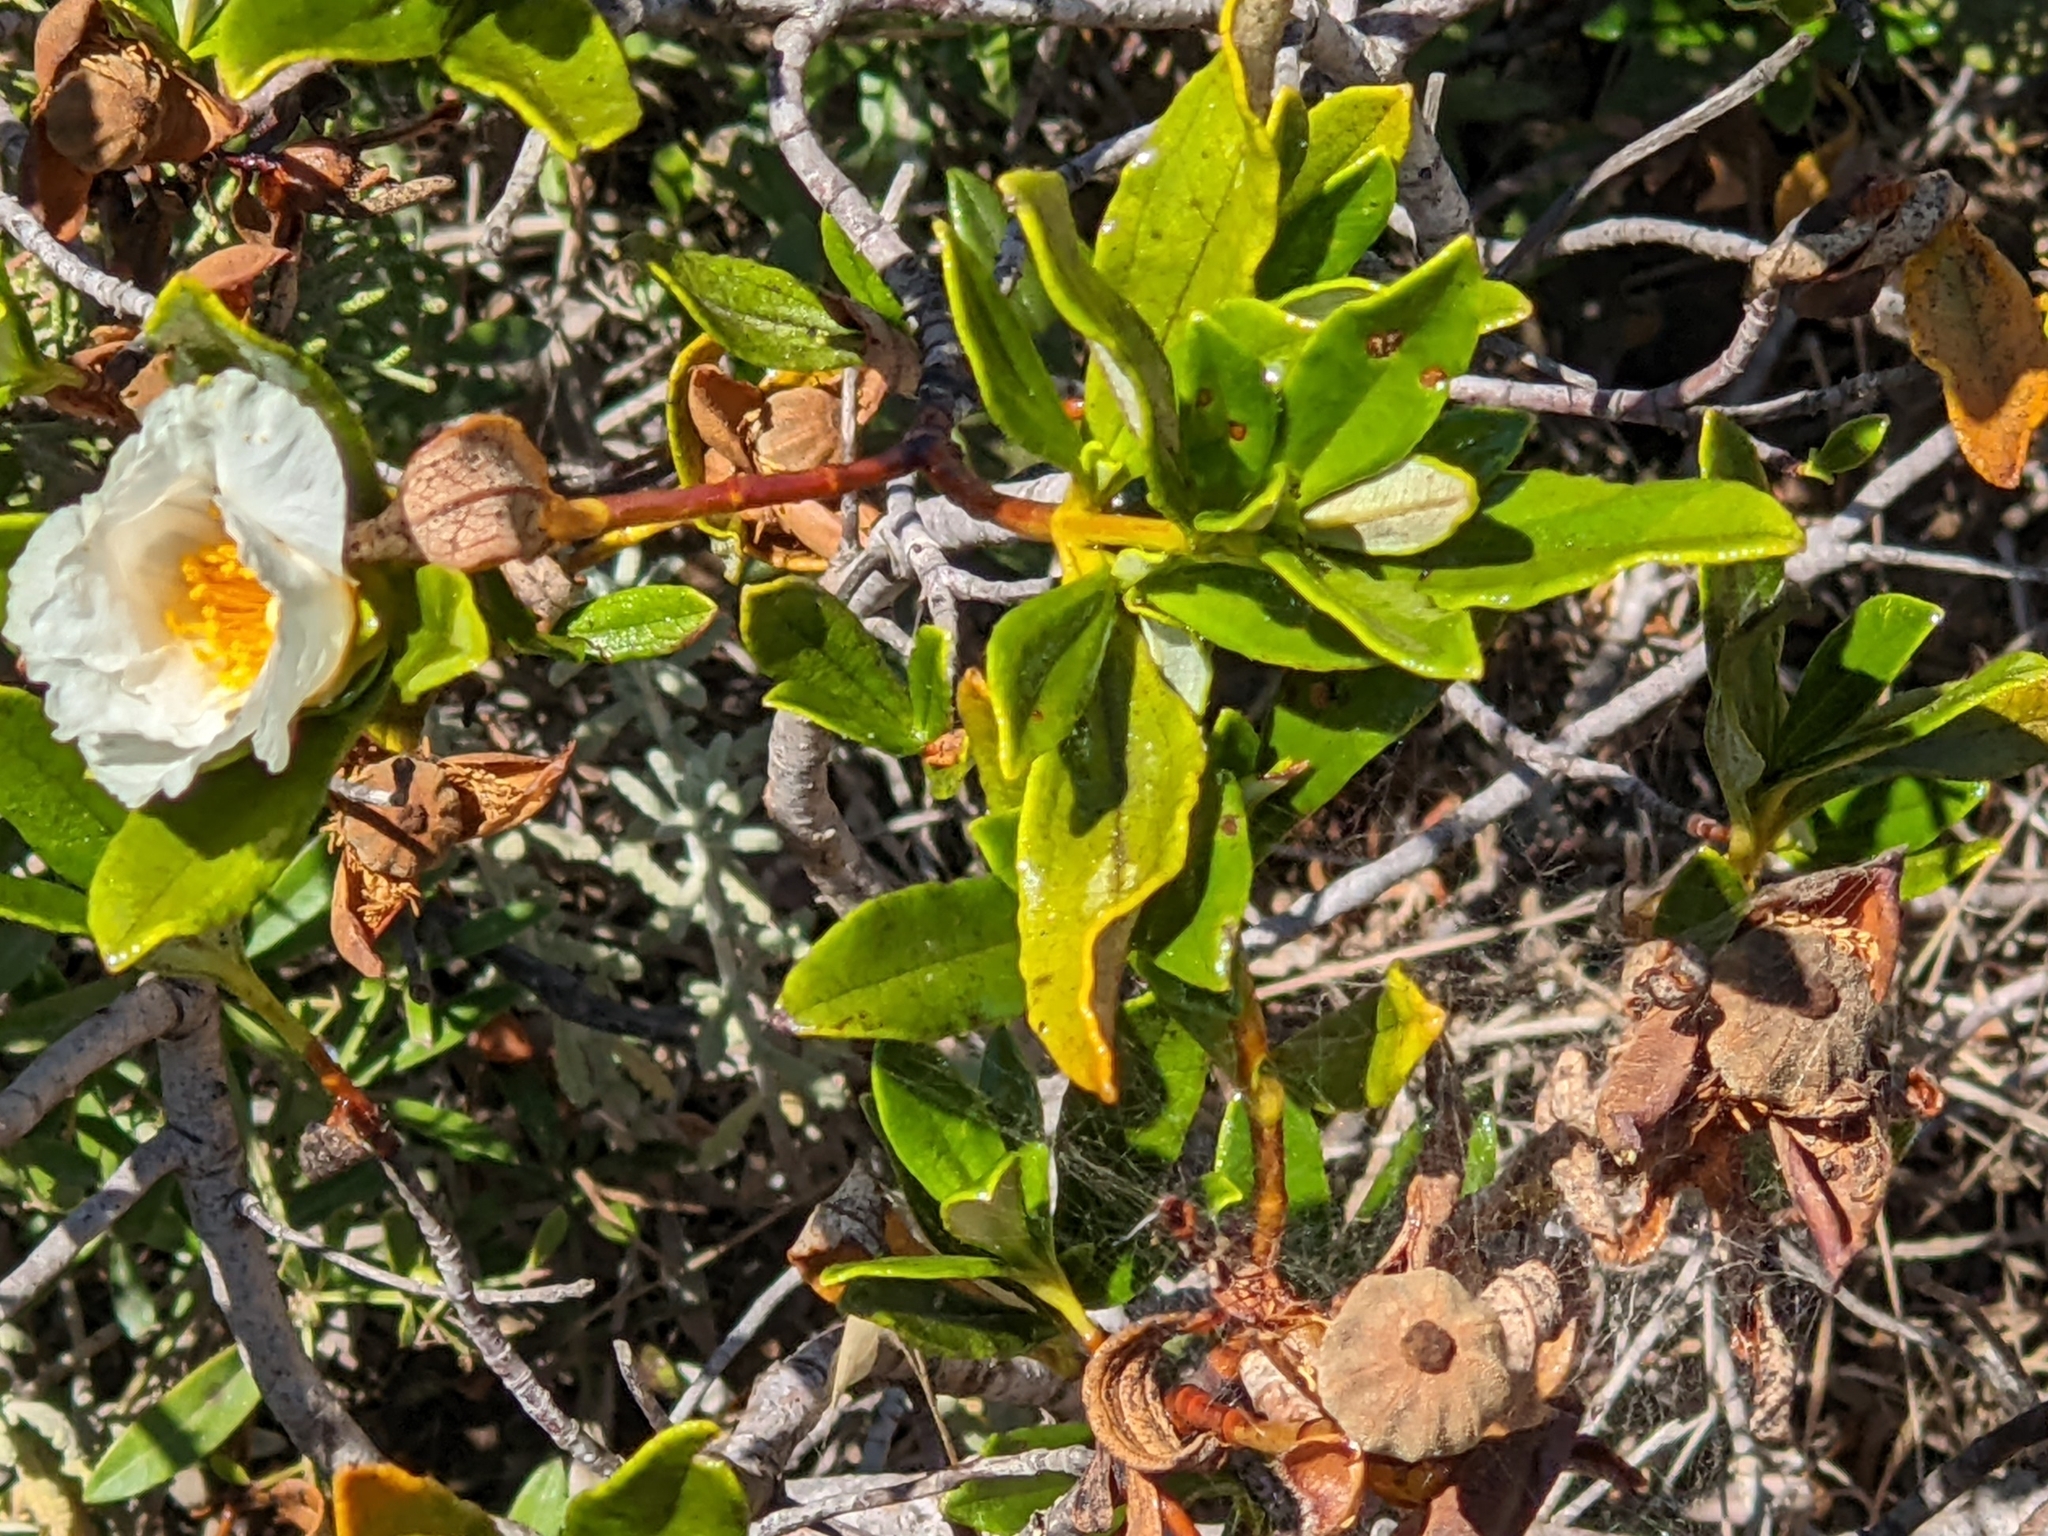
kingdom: Plantae
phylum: Tracheophyta
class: Magnoliopsida
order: Malvales
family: Cistaceae
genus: Cistus
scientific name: Cistus ladanifer
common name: Common gum cistus
